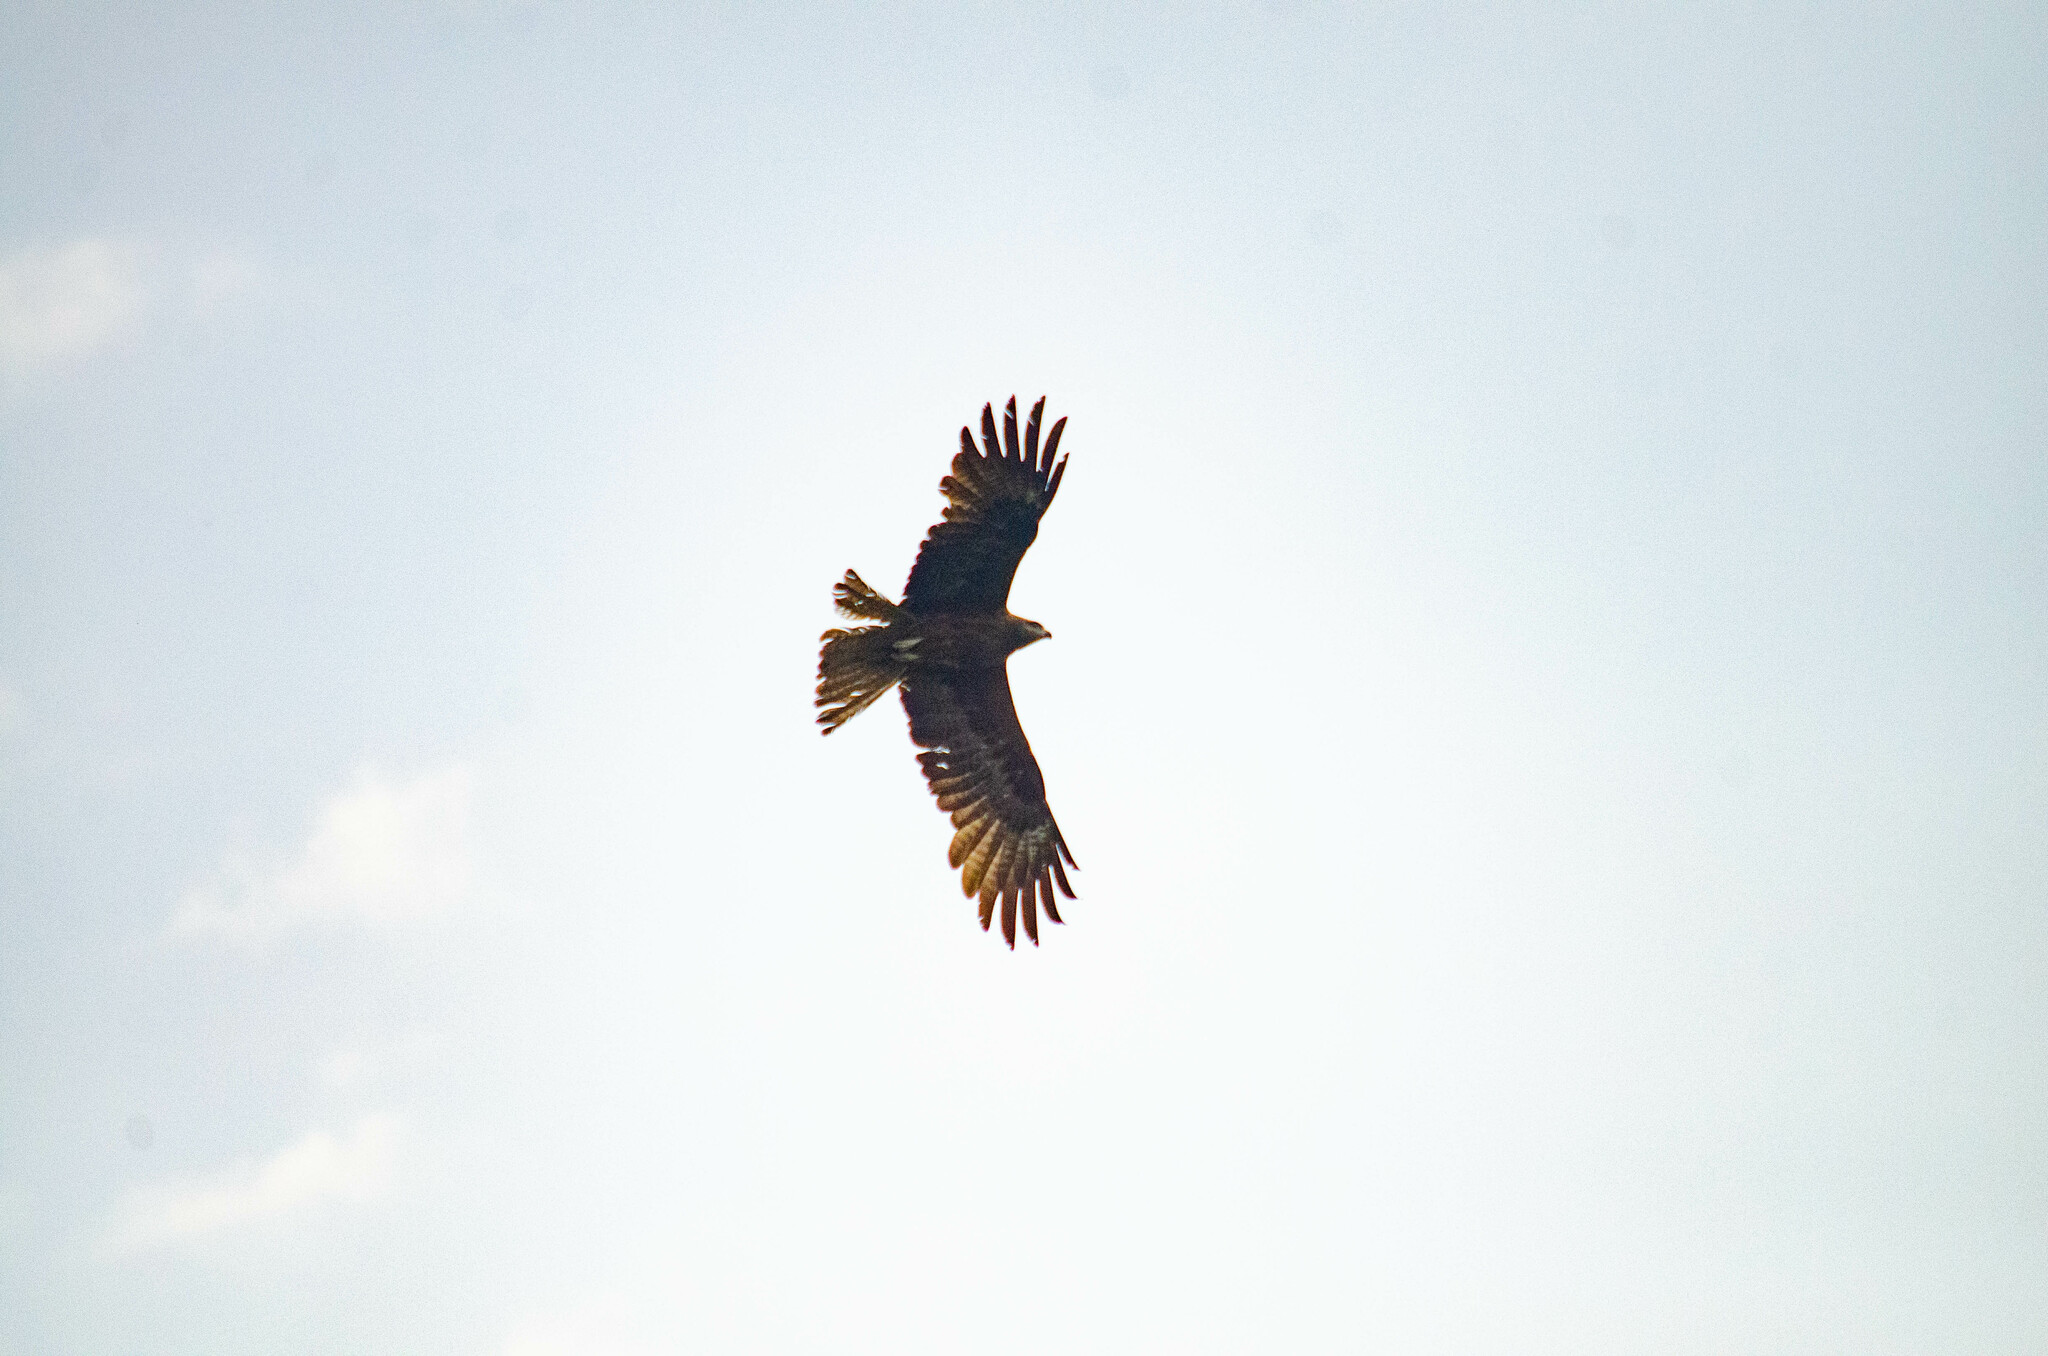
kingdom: Animalia
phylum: Chordata
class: Aves
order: Accipitriformes
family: Accipitridae
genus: Milvus
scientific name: Milvus migrans
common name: Black kite
